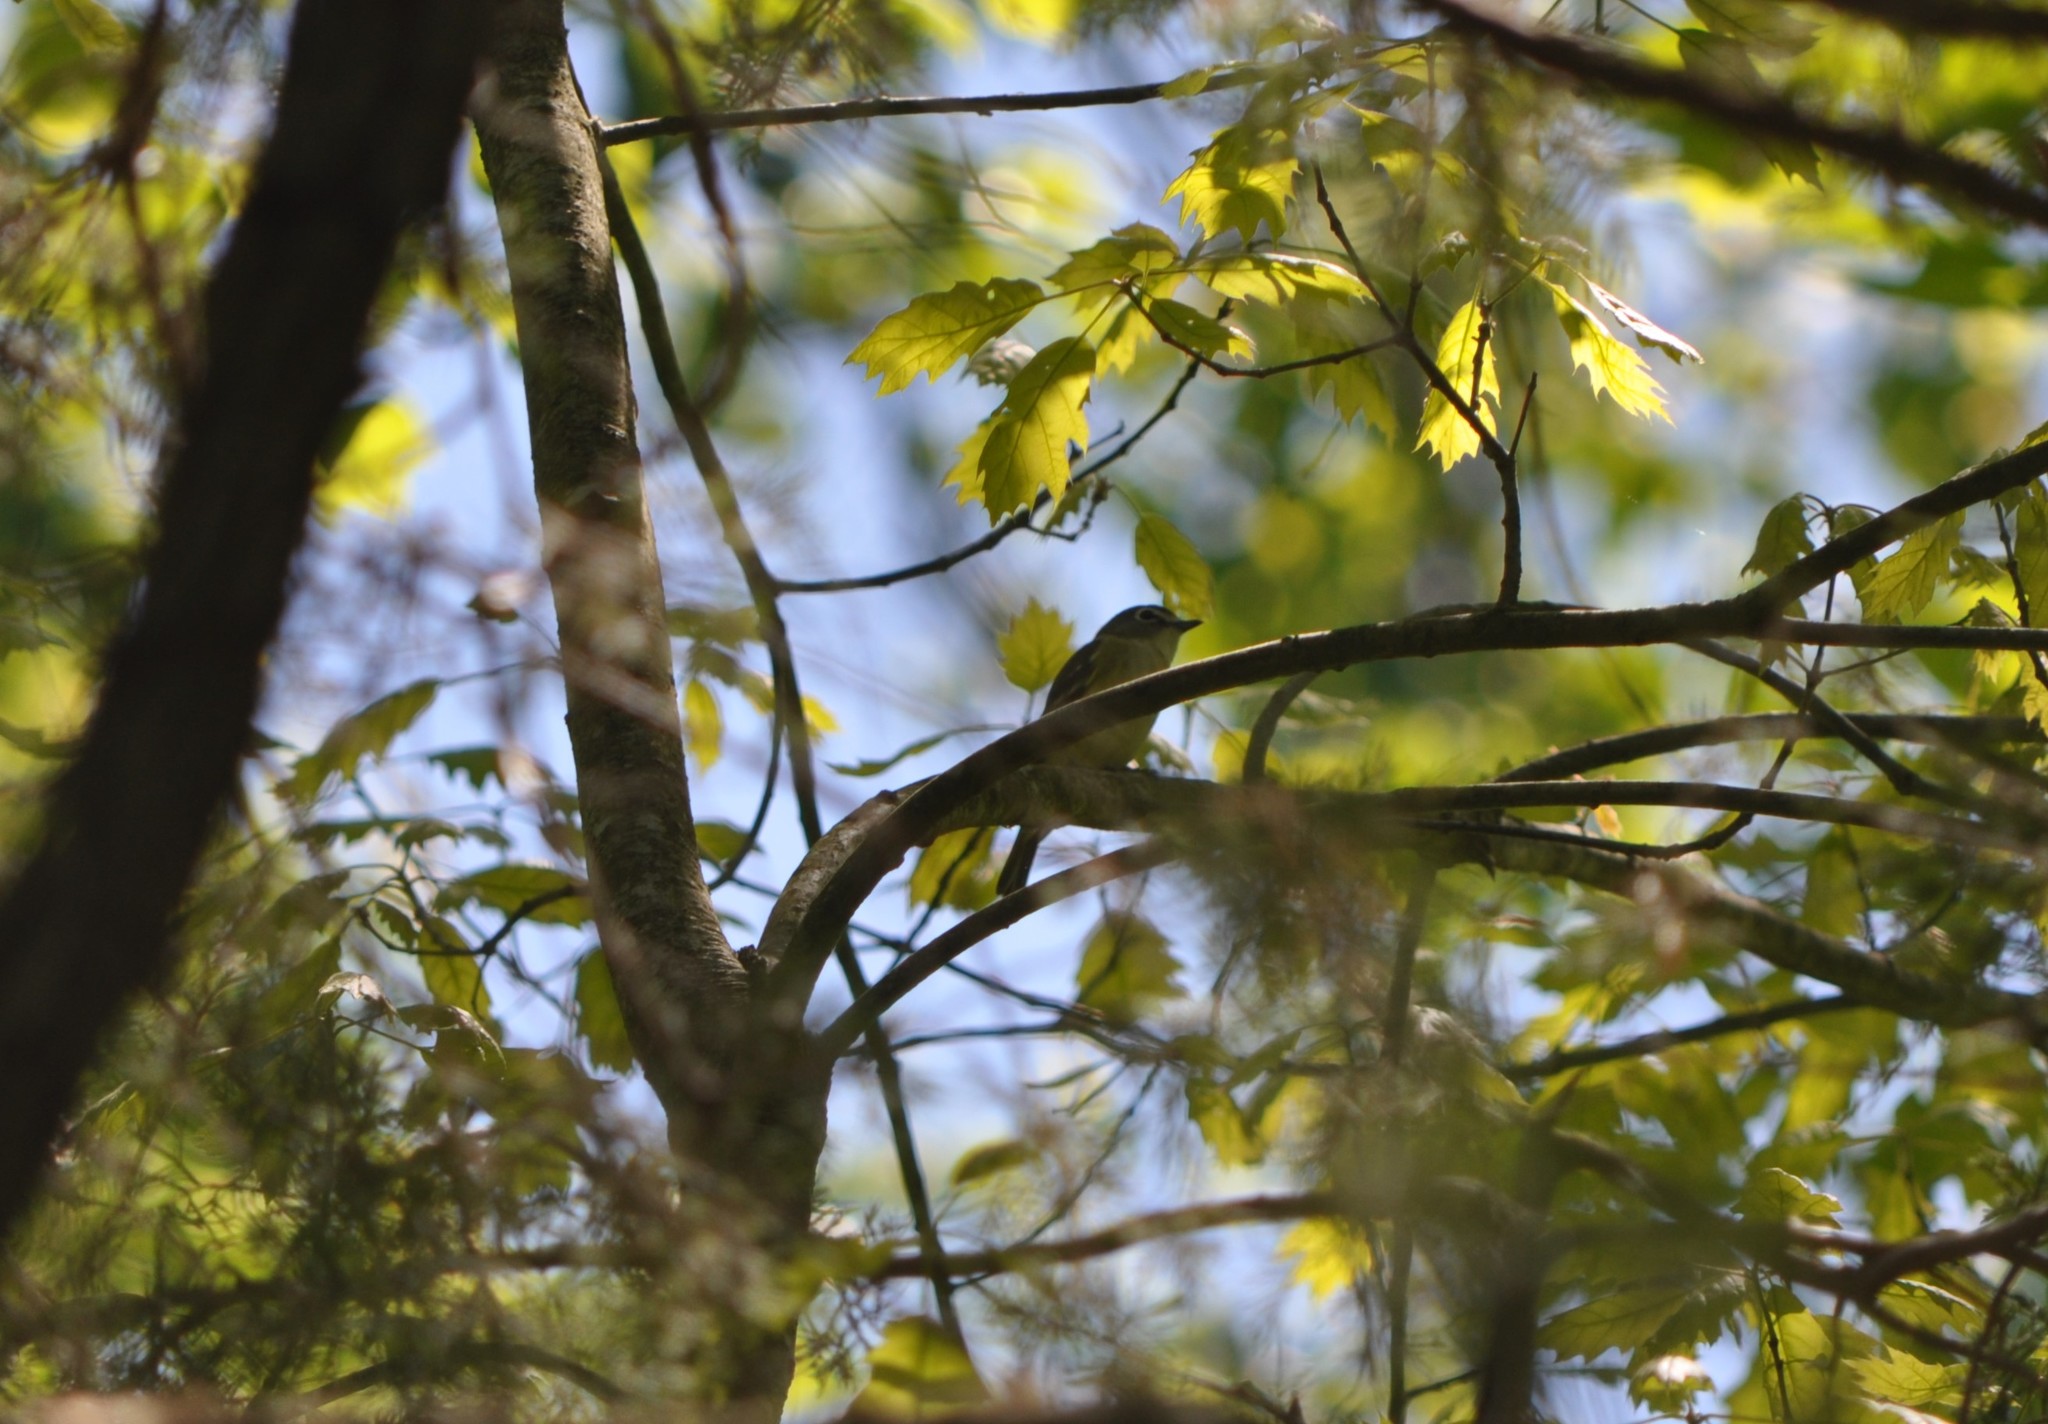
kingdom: Animalia
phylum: Chordata
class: Aves
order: Passeriformes
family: Vireonidae
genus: Vireo
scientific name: Vireo solitarius
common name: Blue-headed vireo
